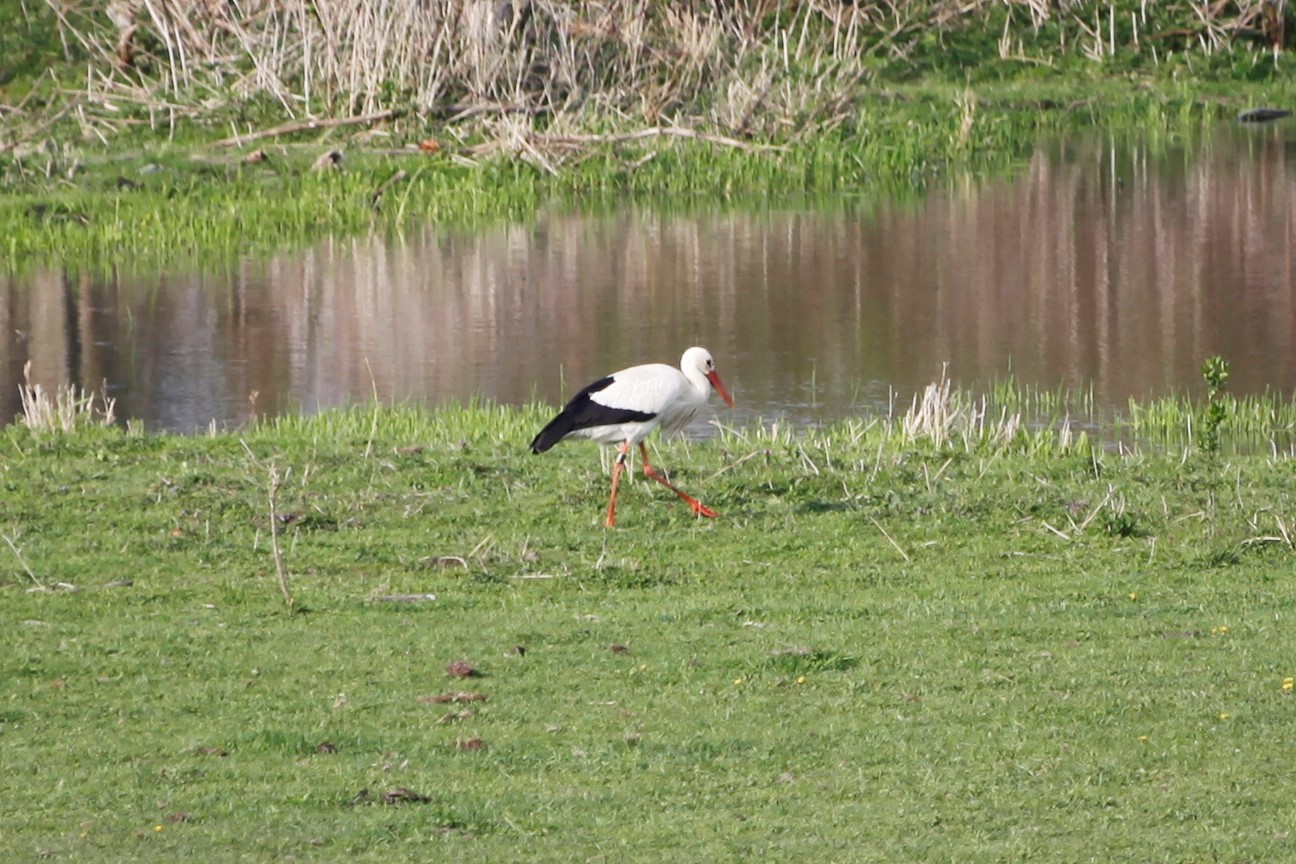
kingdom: Animalia
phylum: Chordata
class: Aves
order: Ciconiiformes
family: Ciconiidae
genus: Ciconia
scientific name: Ciconia ciconia
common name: White stork
